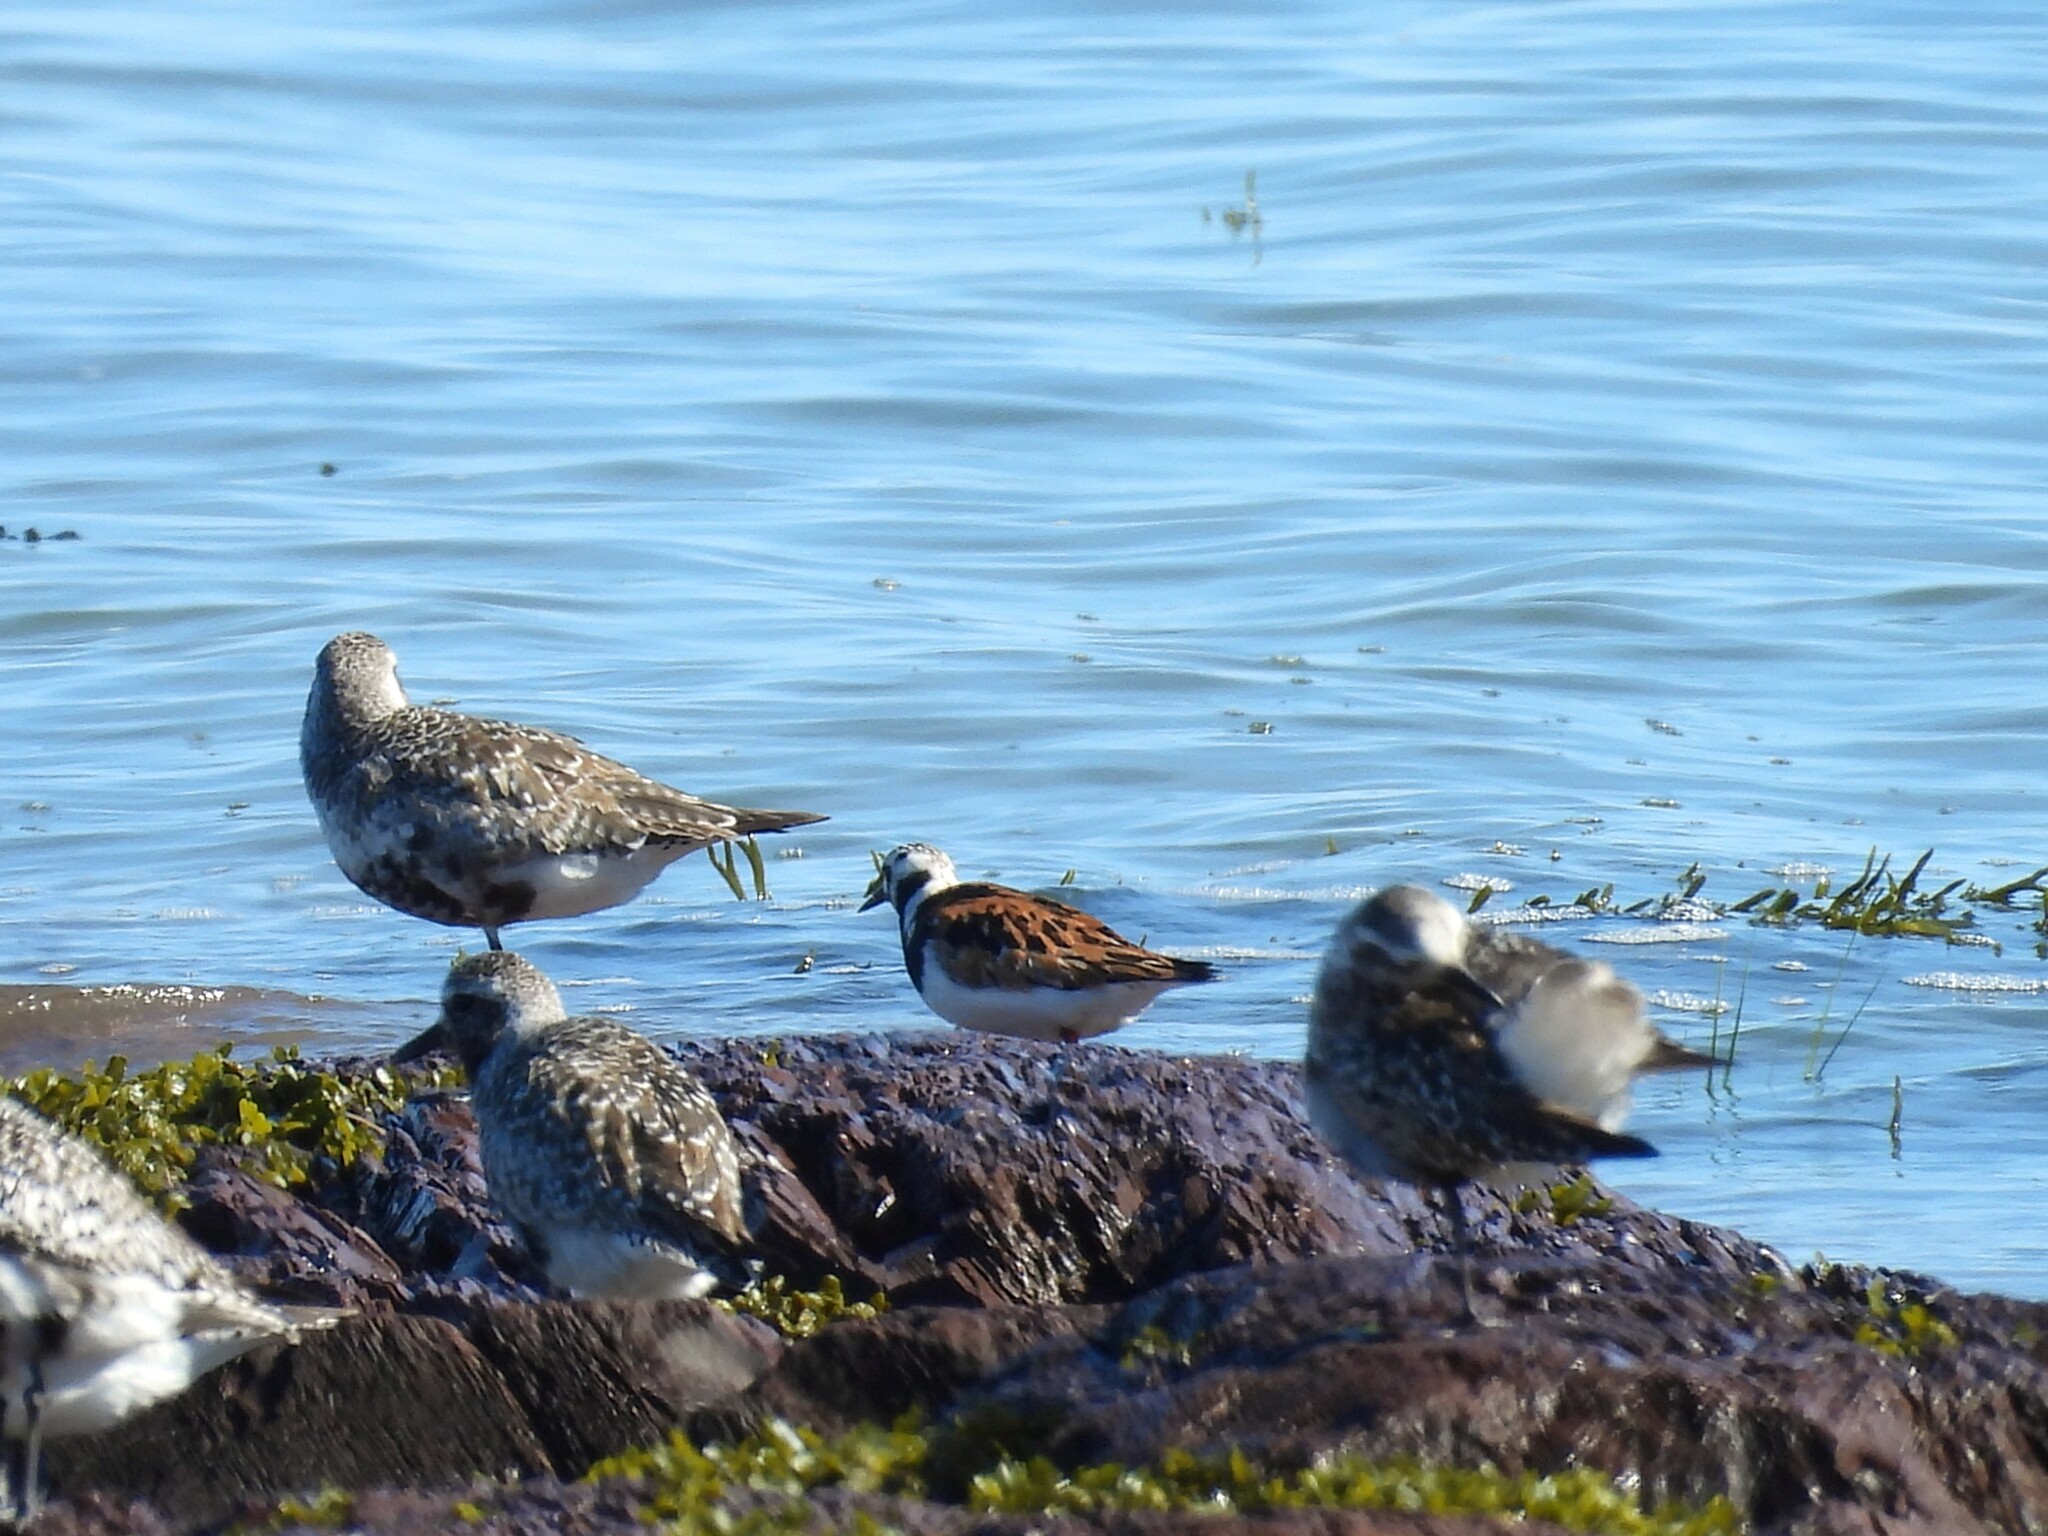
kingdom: Animalia
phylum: Chordata
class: Aves
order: Charadriiformes
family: Scolopacidae
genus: Arenaria
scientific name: Arenaria interpres
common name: Ruddy turnstone
